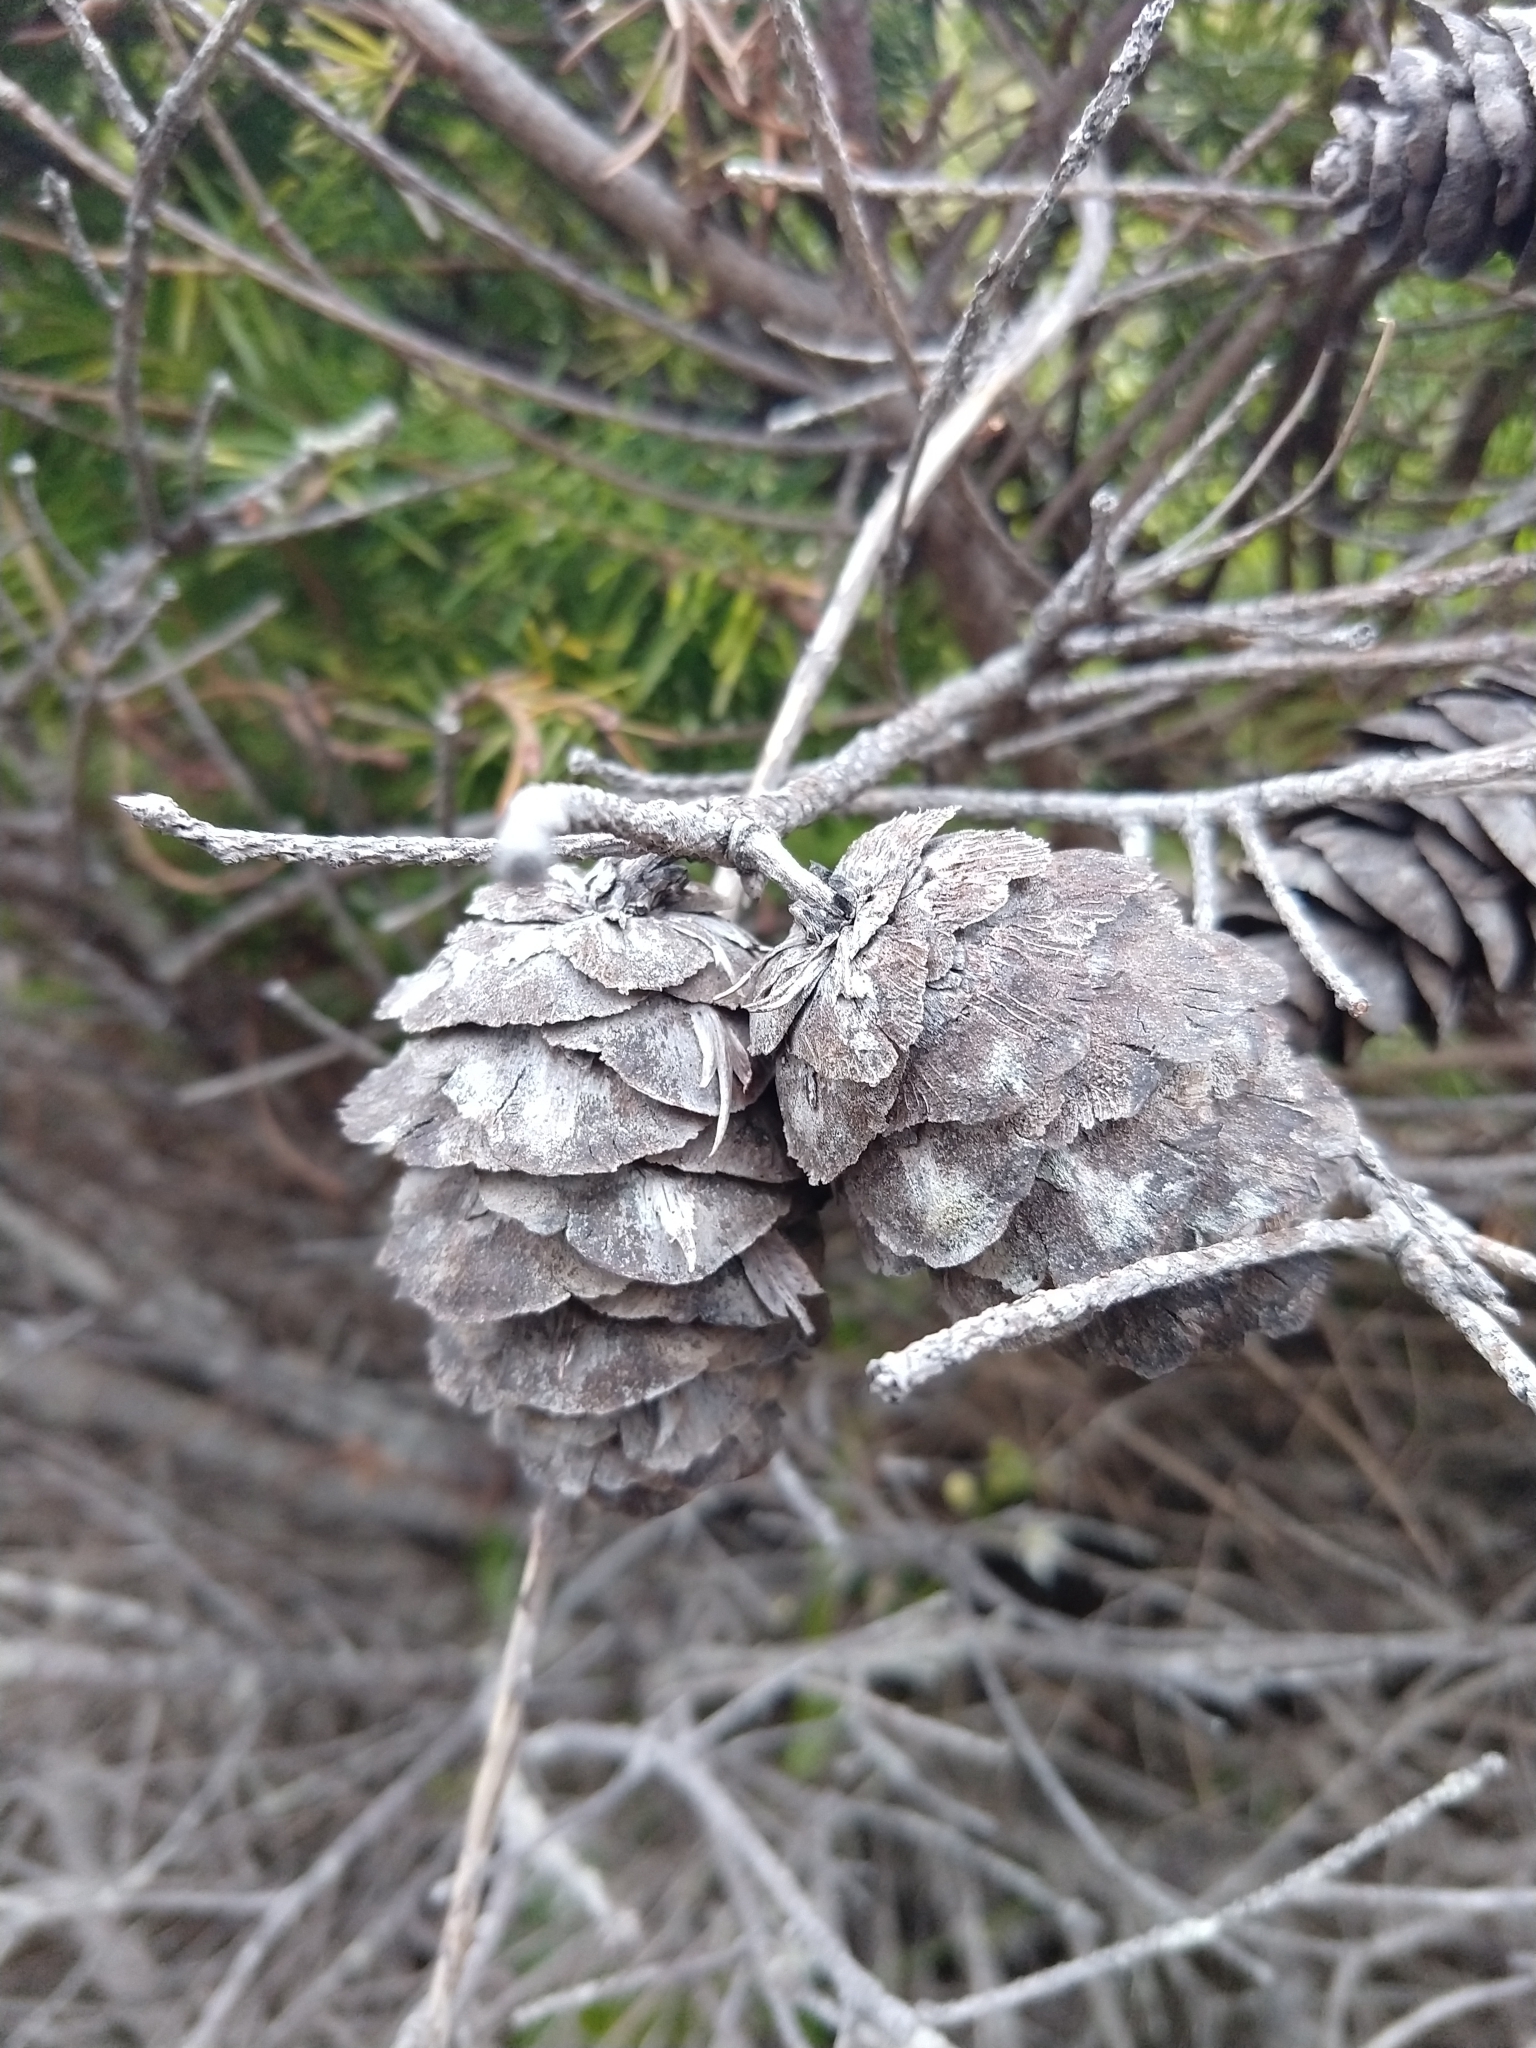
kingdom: Plantae
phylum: Tracheophyta
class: Pinopsida
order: Pinales
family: Pinaceae
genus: Pseudotsuga
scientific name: Pseudotsuga menziesii
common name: Douglas fir
